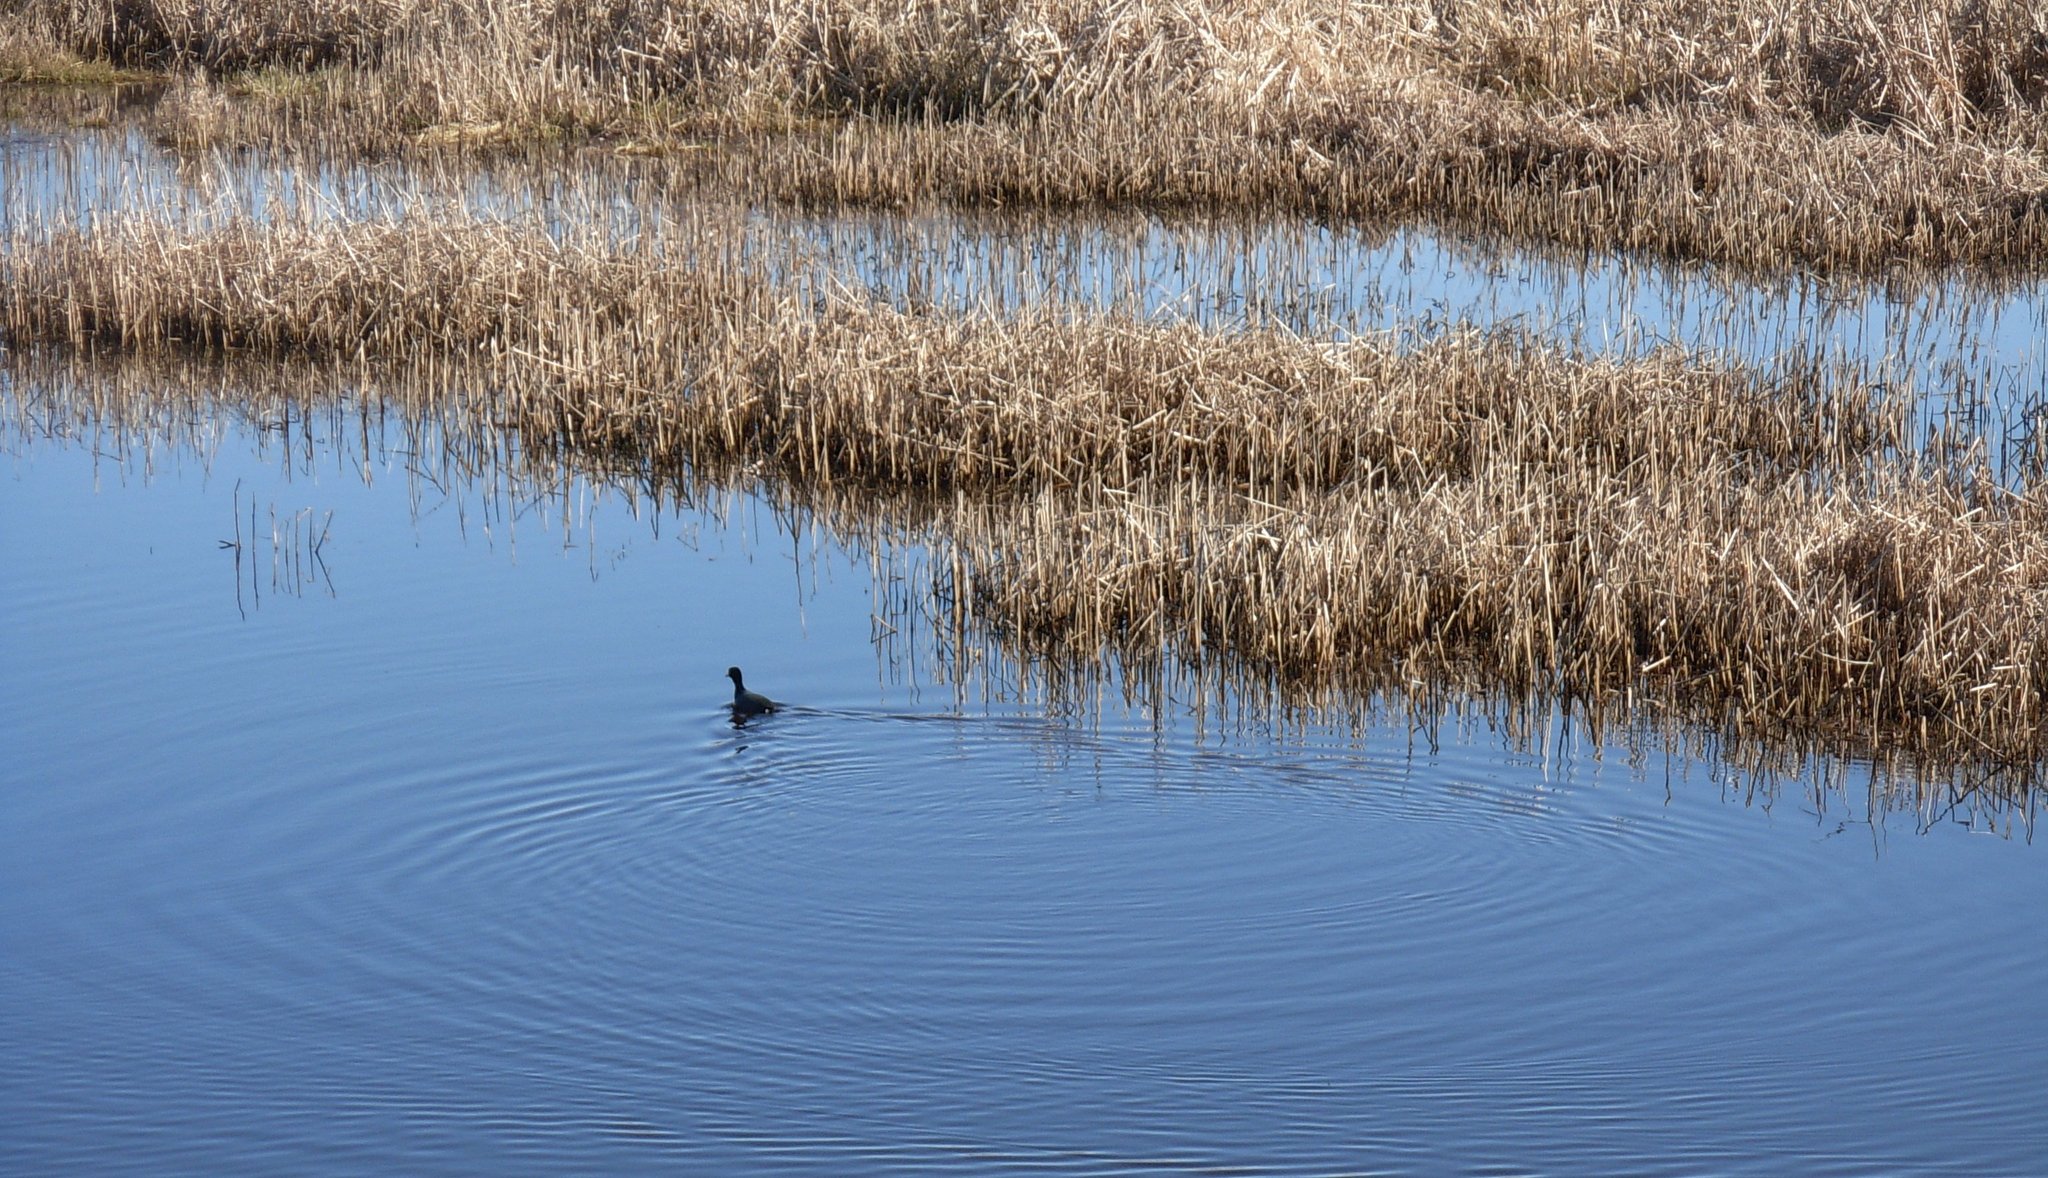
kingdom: Animalia
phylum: Chordata
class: Aves
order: Gruiformes
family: Rallidae
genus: Fulica
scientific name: Fulica americana
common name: American coot
